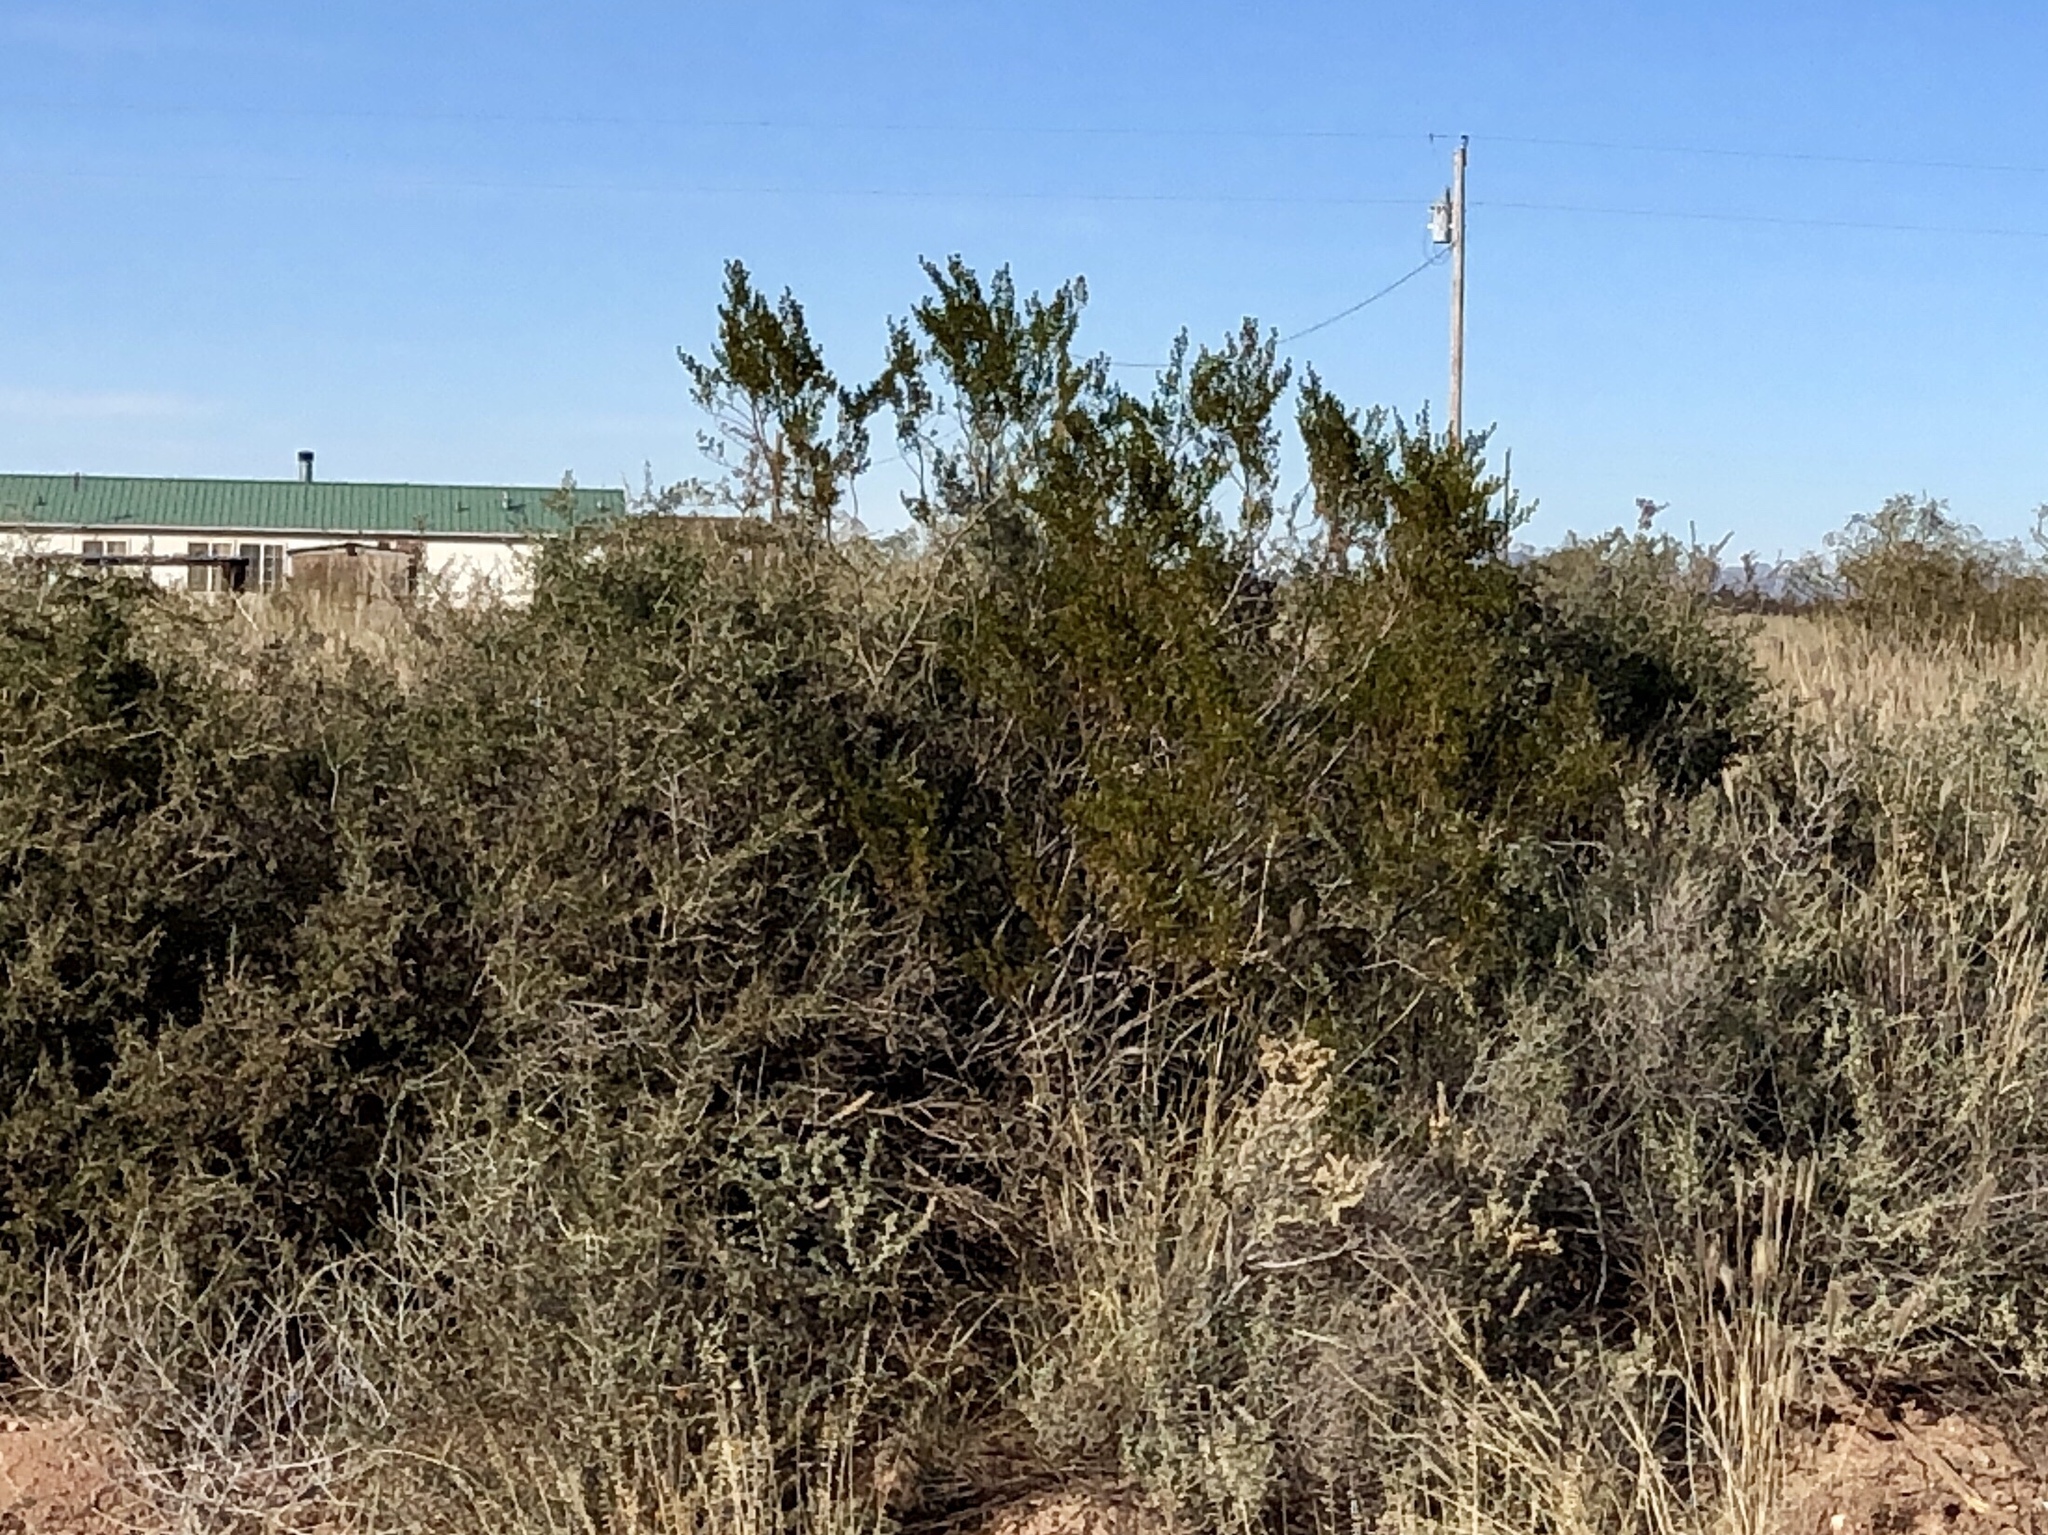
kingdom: Plantae
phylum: Tracheophyta
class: Magnoliopsida
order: Zygophyllales
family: Zygophyllaceae
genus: Larrea
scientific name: Larrea tridentata
